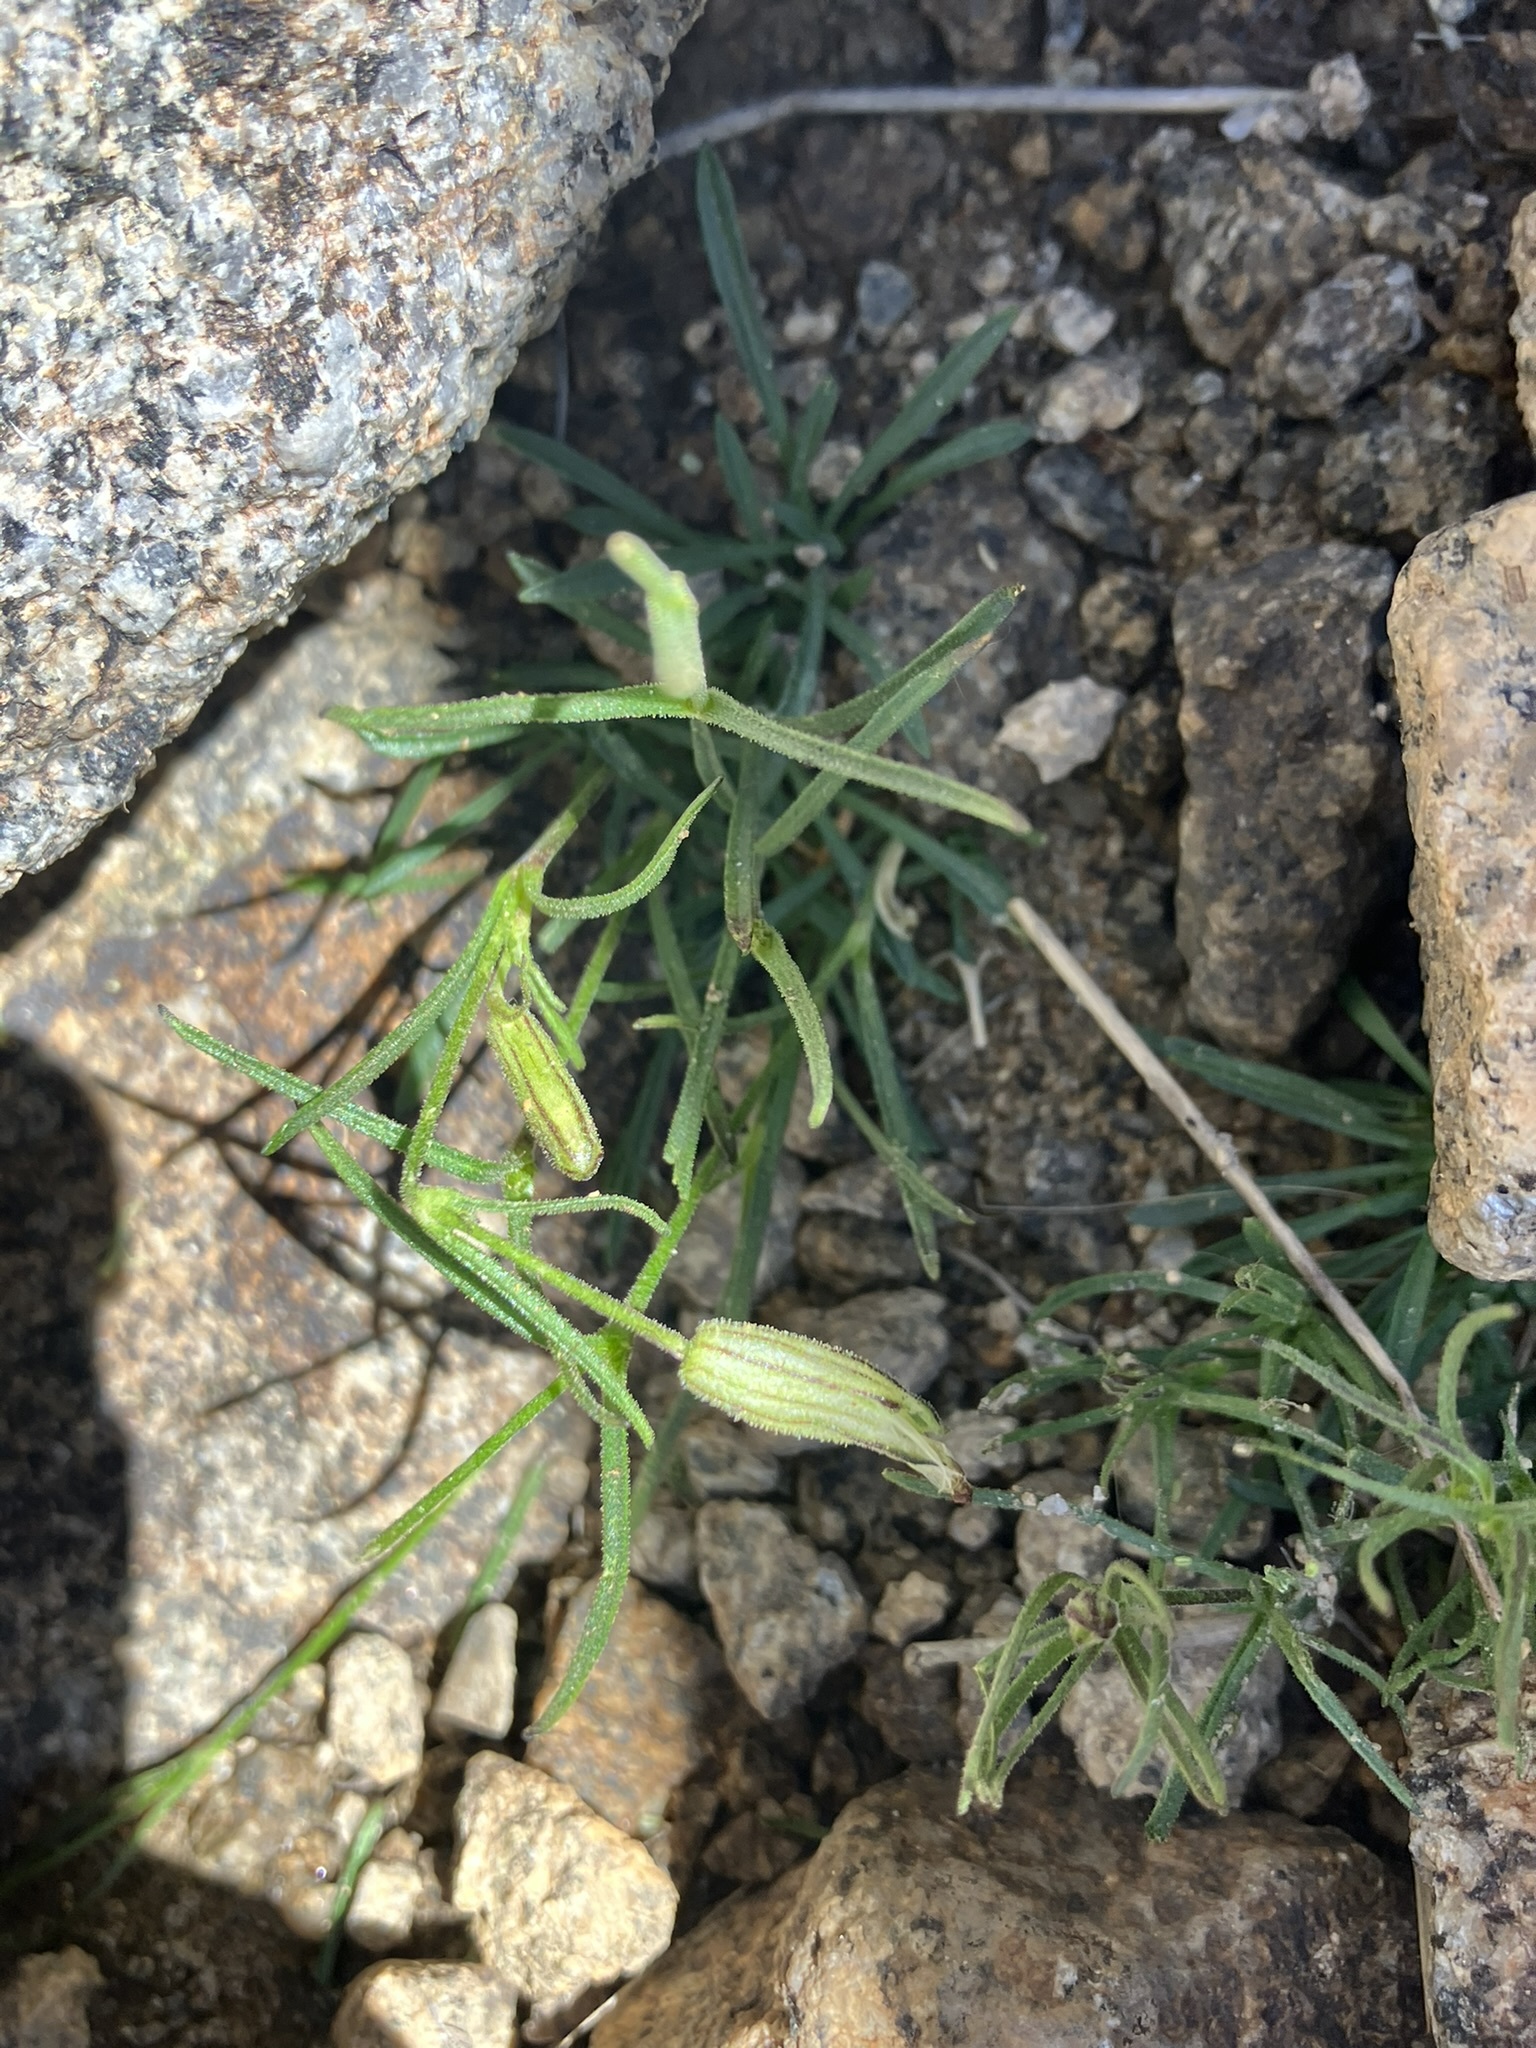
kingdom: Plantae
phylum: Tracheophyta
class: Magnoliopsida
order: Caryophyllales
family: Caryophyllaceae
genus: Silene
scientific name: Silene sargentii
